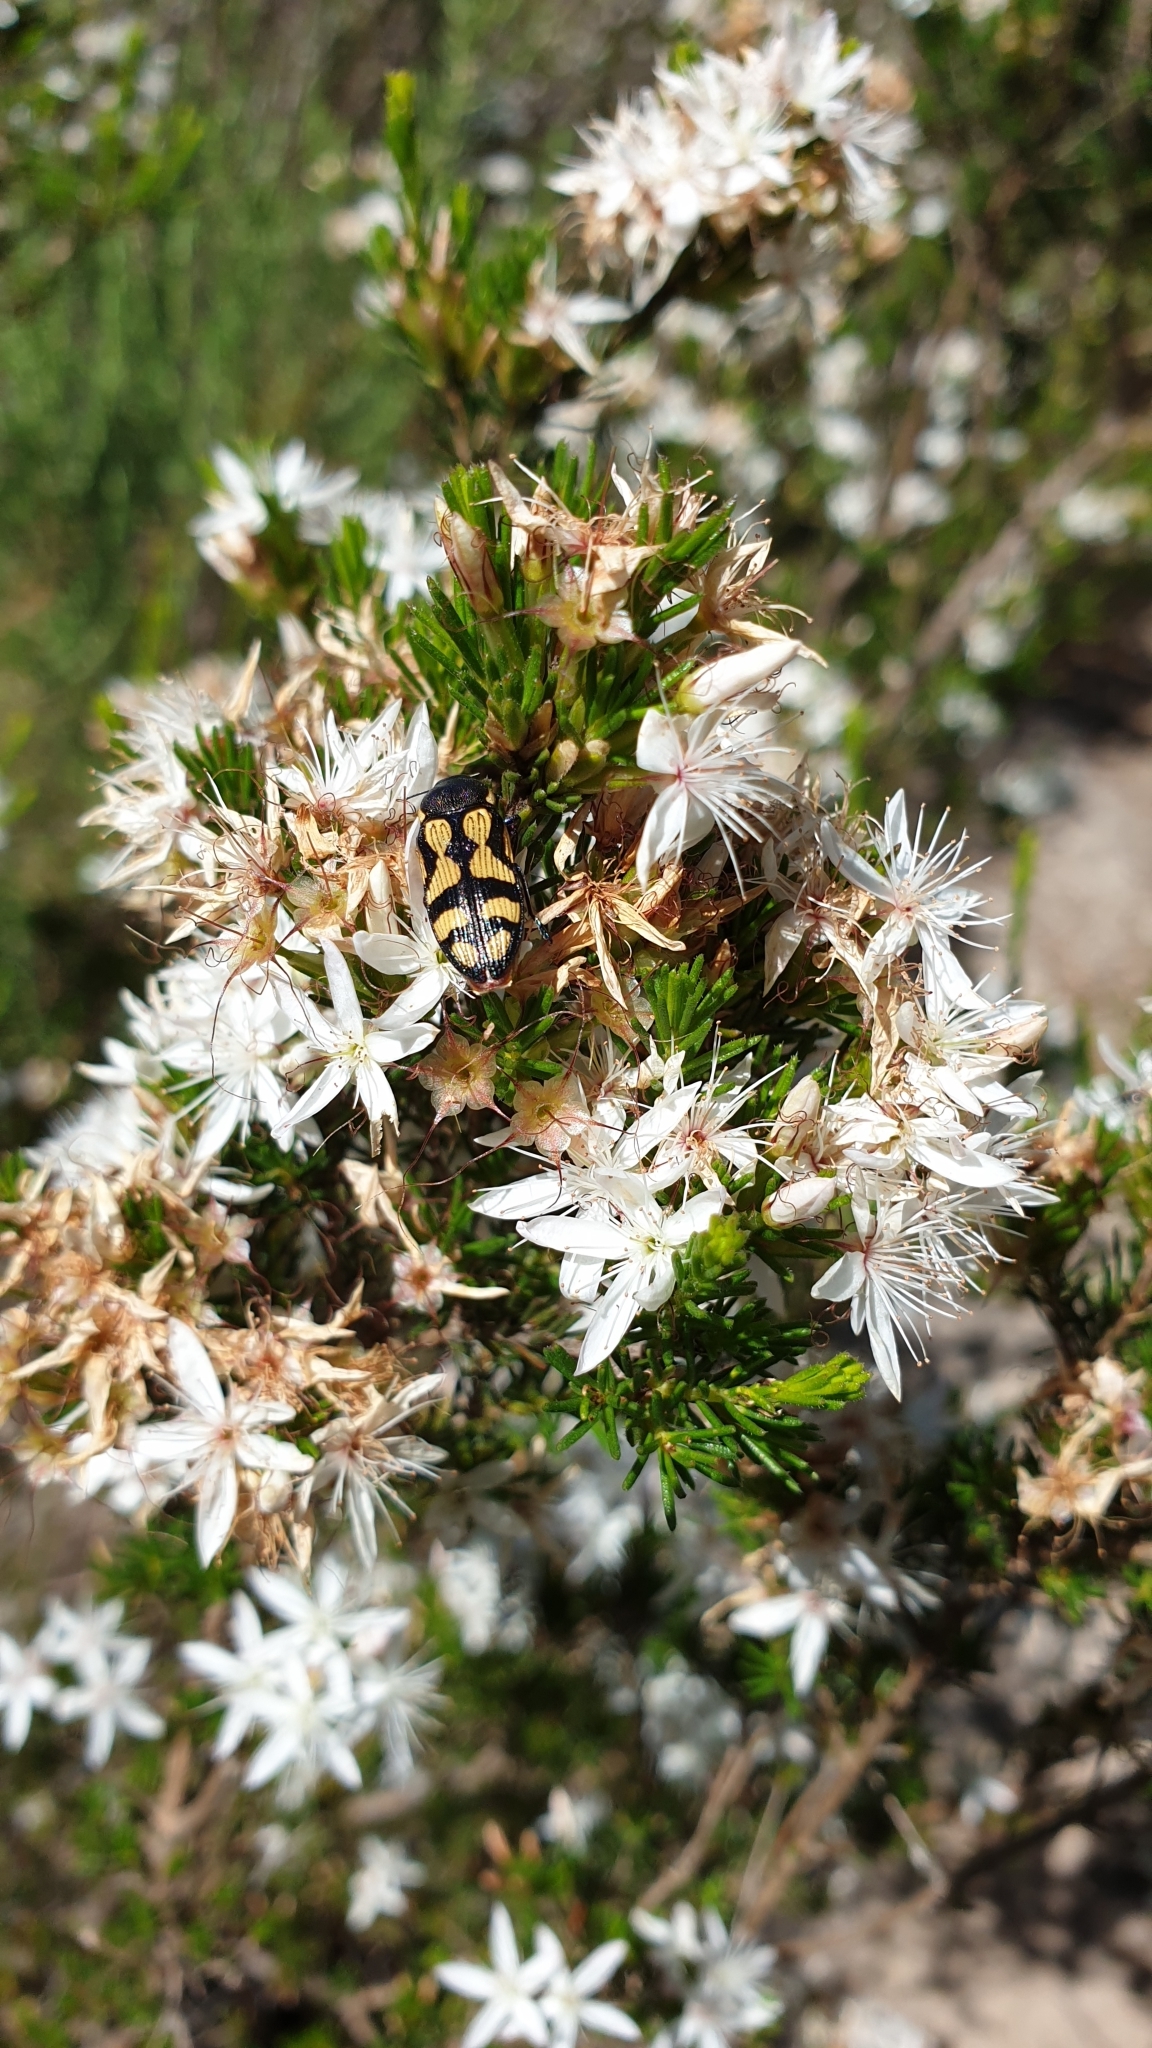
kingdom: Animalia
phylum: Arthropoda
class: Insecta
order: Coleoptera
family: Buprestidae
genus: Castiarina
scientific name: Castiarina adelaidae
